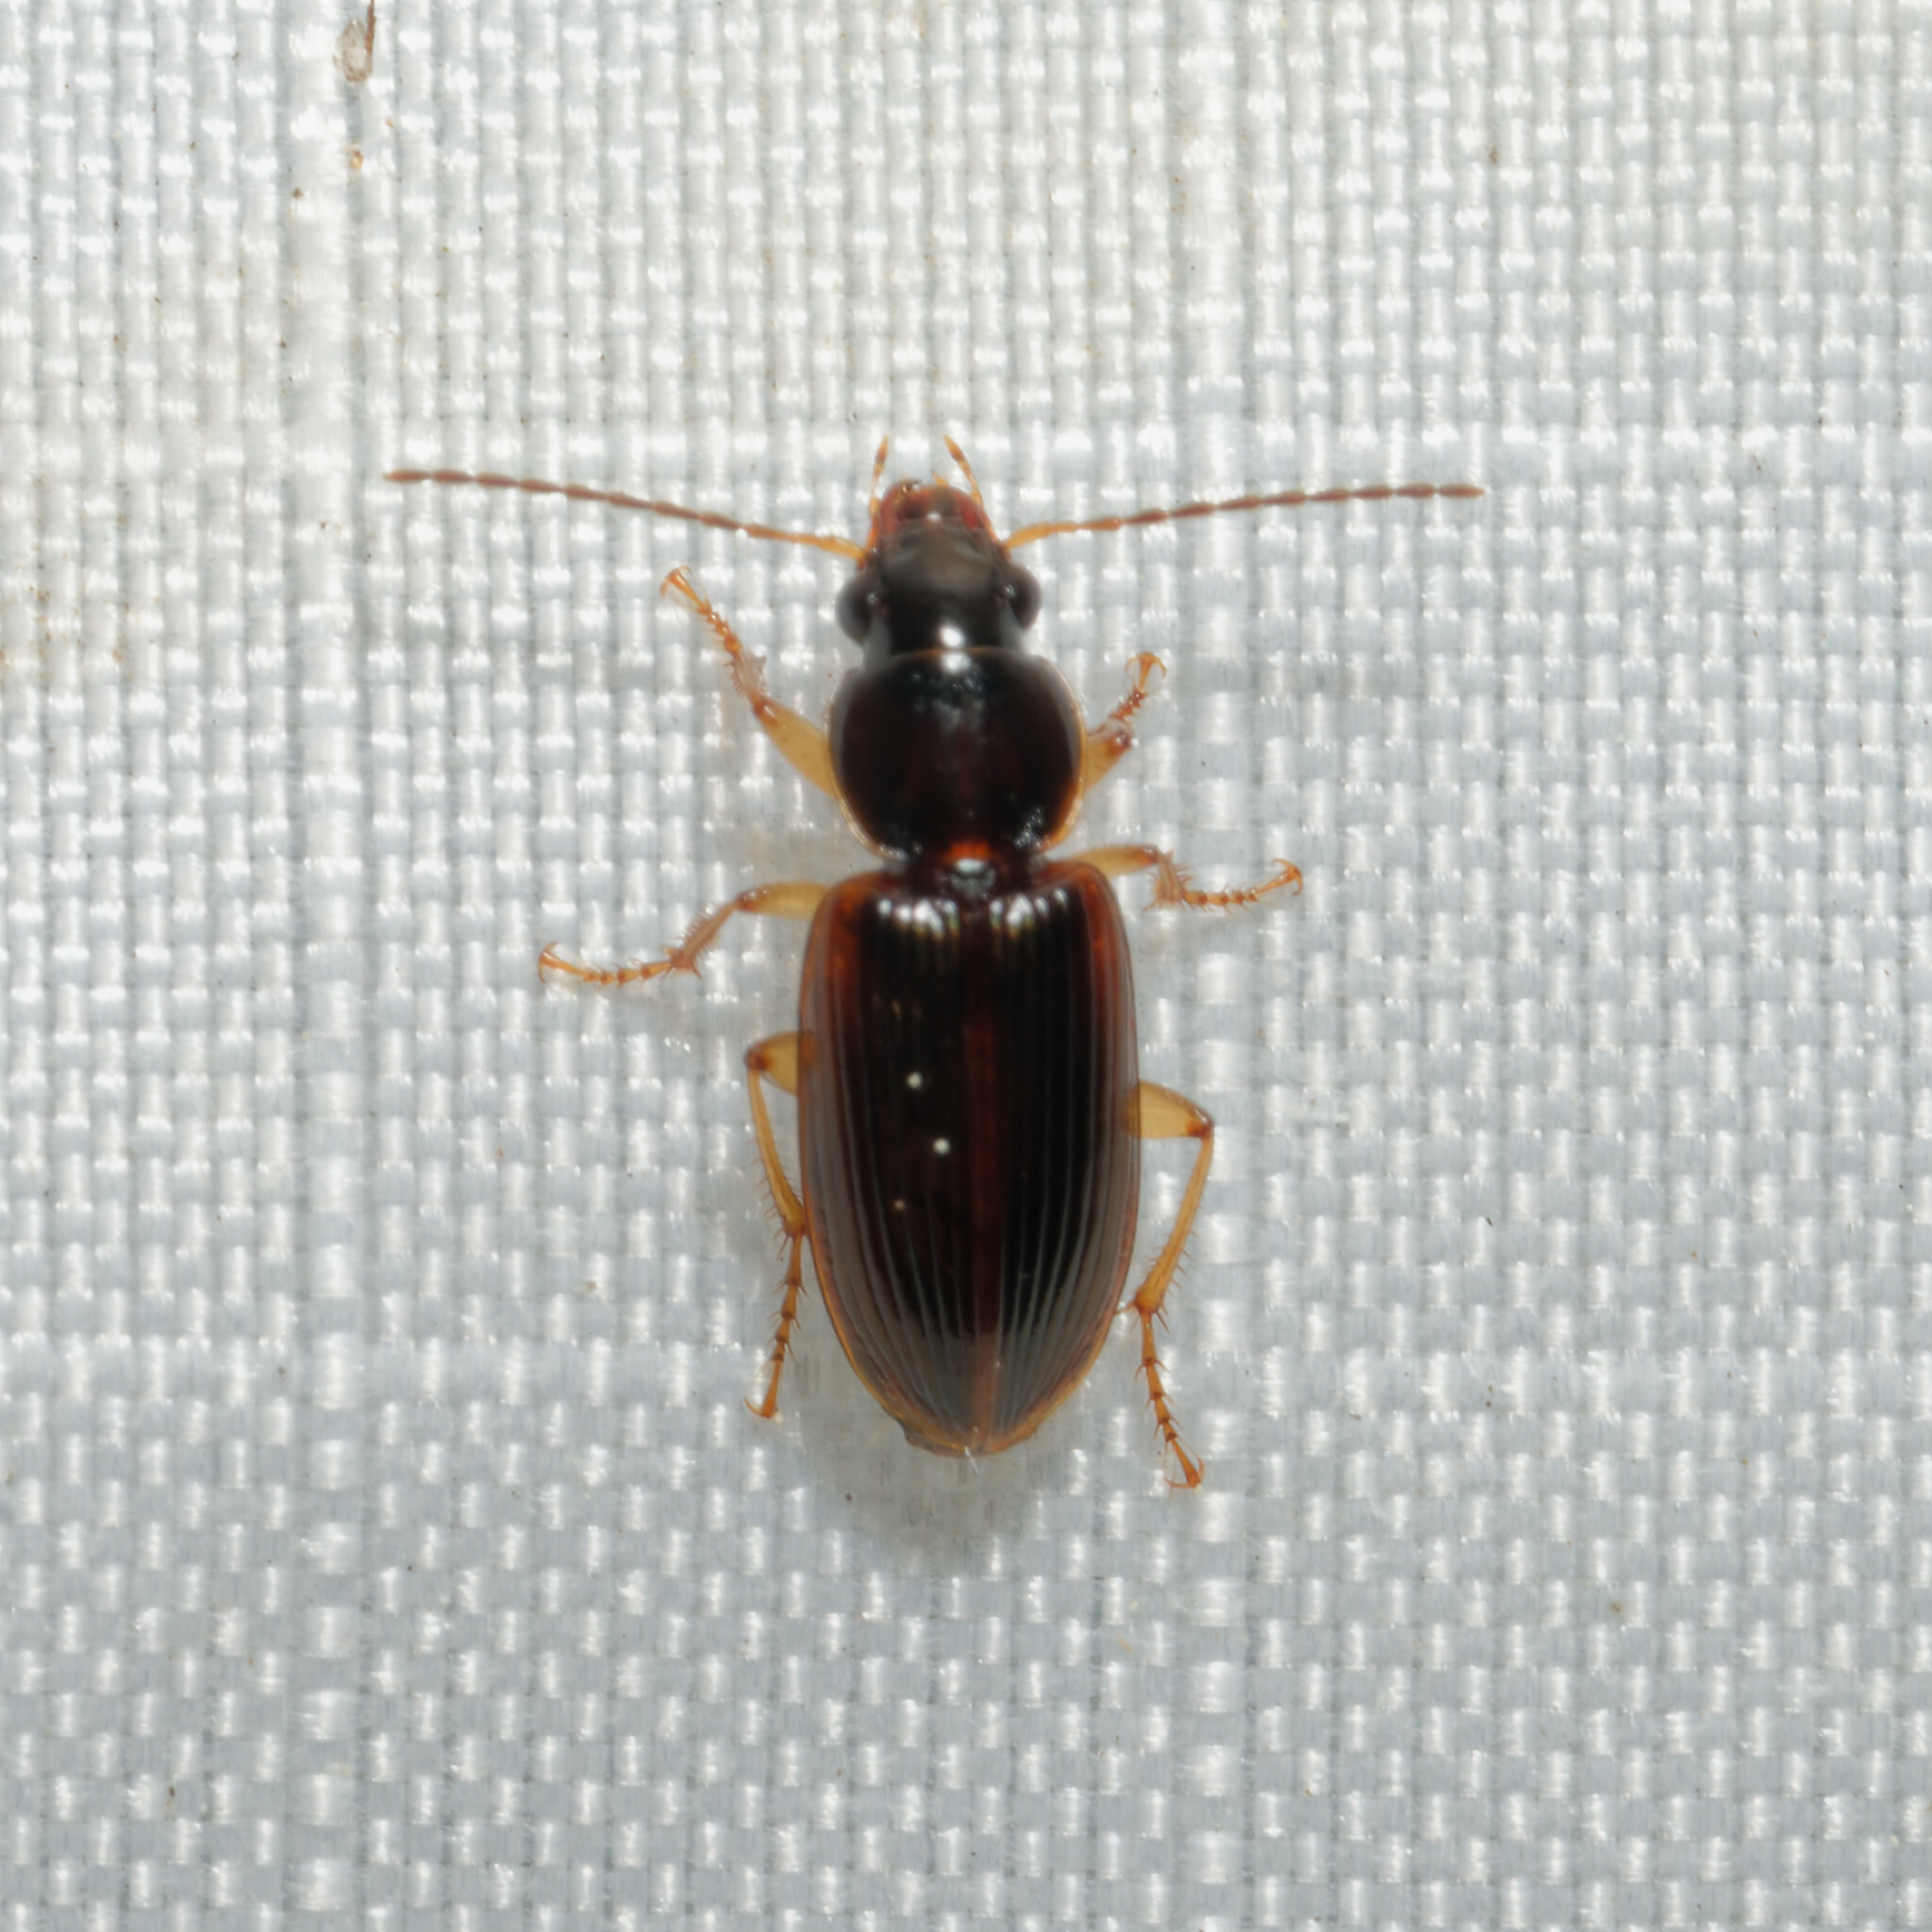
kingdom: Animalia
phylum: Arthropoda
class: Insecta
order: Coleoptera
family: Carabidae
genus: Stenolophus
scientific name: Stenolophus ochropezus
